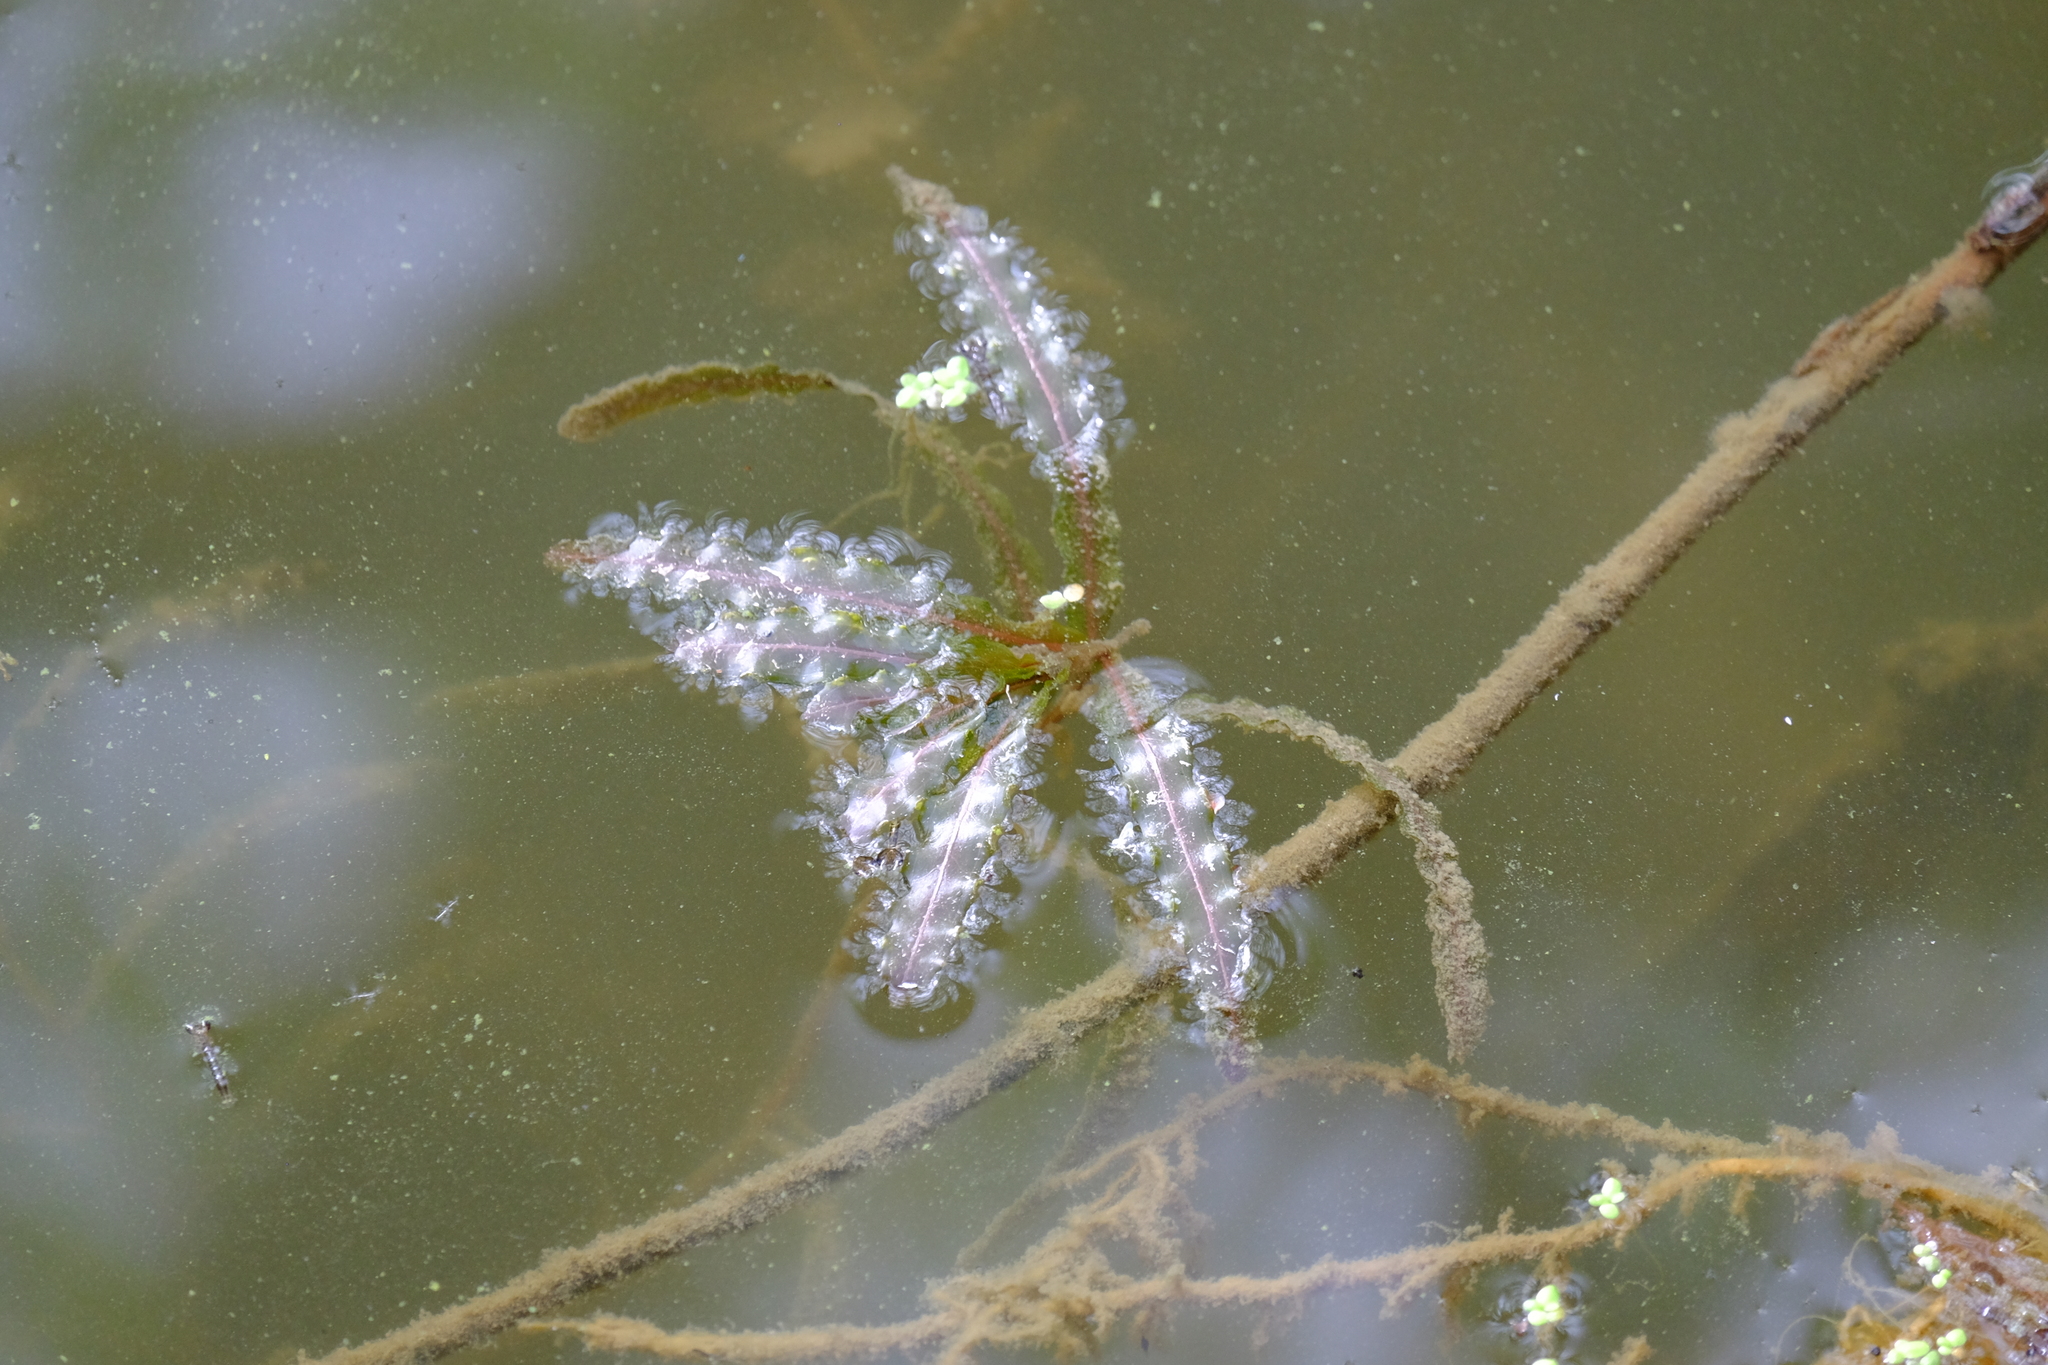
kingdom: Plantae
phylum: Tracheophyta
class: Liliopsida
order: Alismatales
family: Potamogetonaceae
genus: Potamogeton
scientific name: Potamogeton crispus
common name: Curled pondweed
